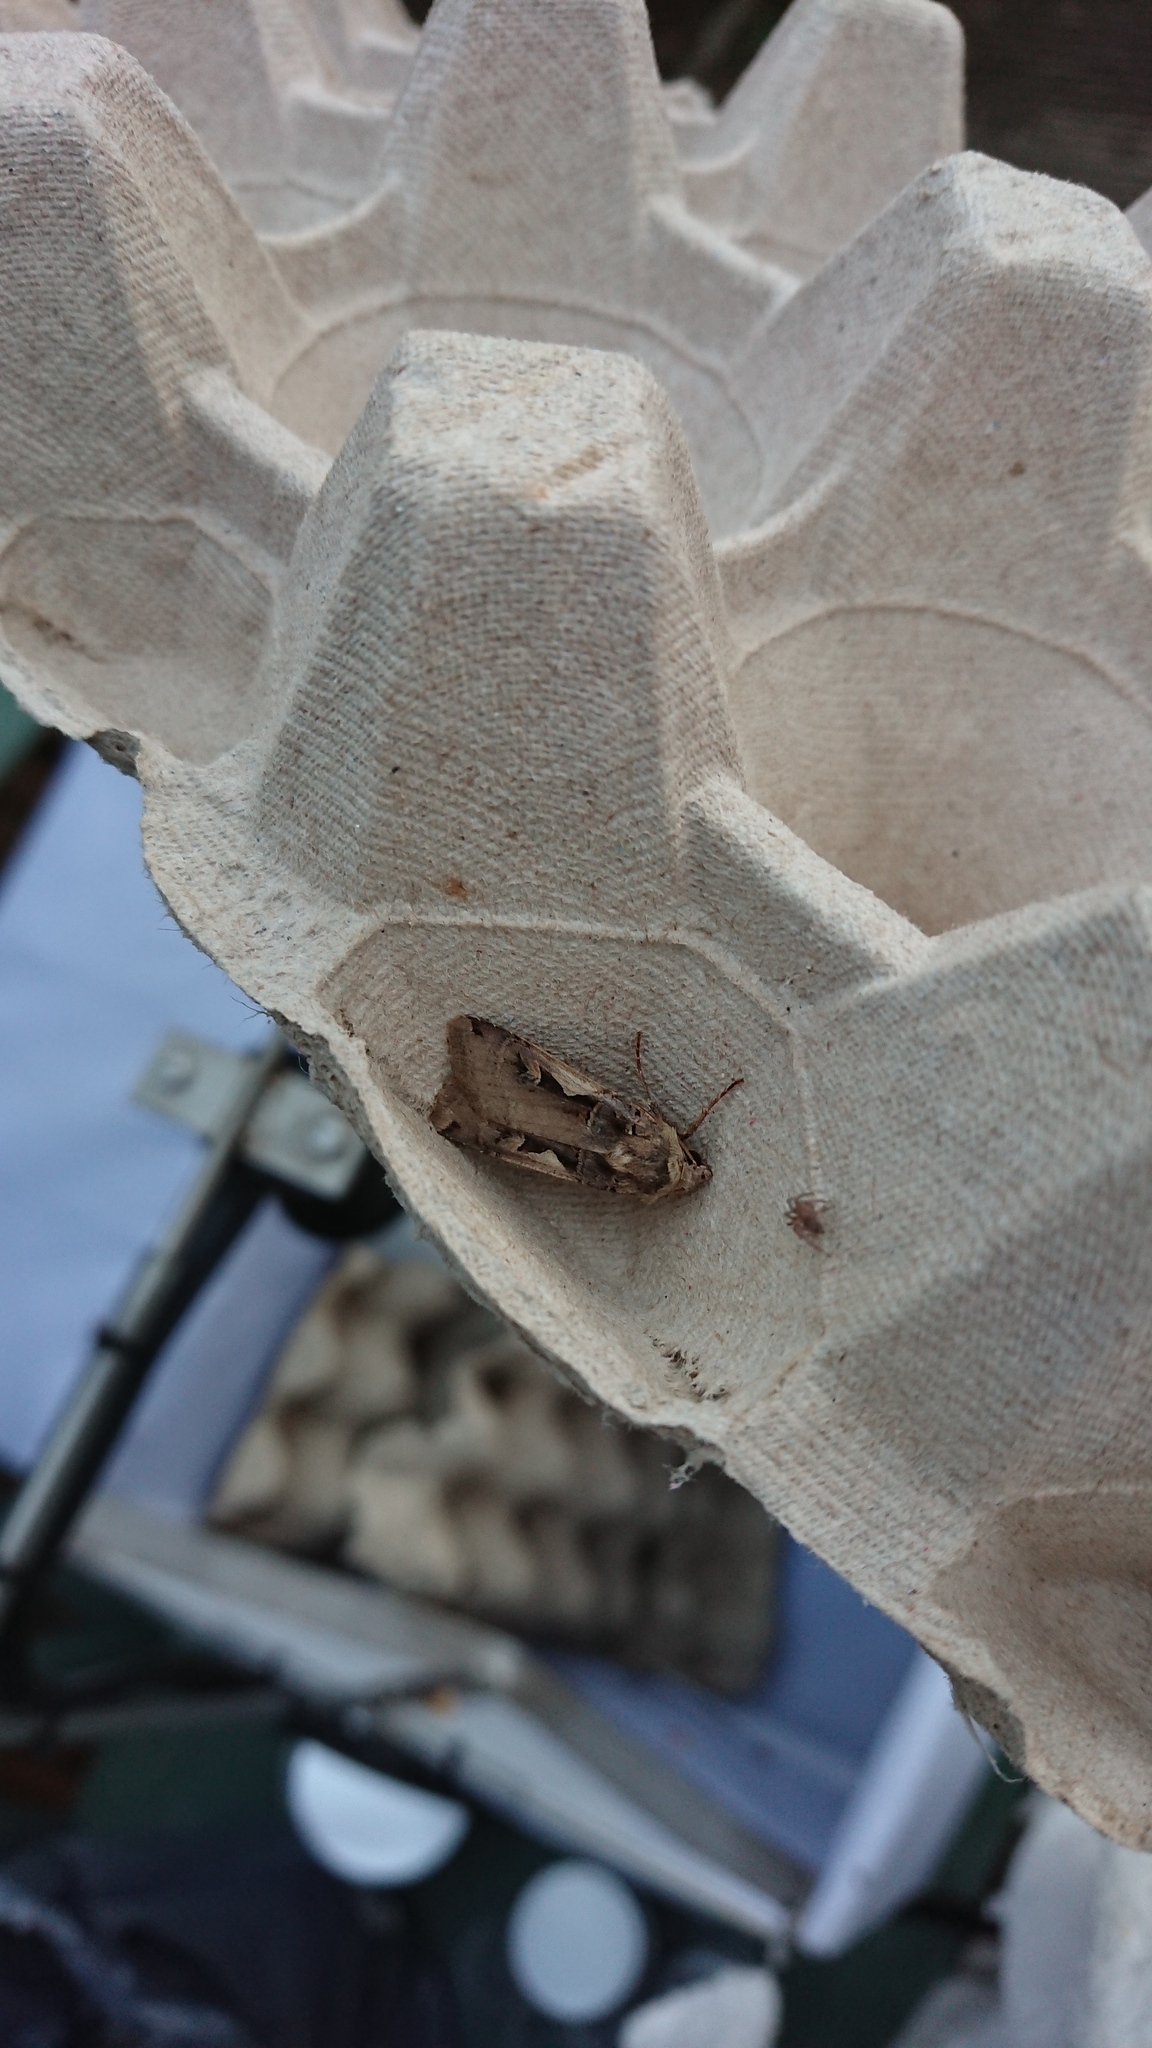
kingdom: Animalia
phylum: Arthropoda
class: Insecta
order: Lepidoptera
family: Noctuidae
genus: Xestia
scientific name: Xestia c-nigrum
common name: Setaceous hebrew character
